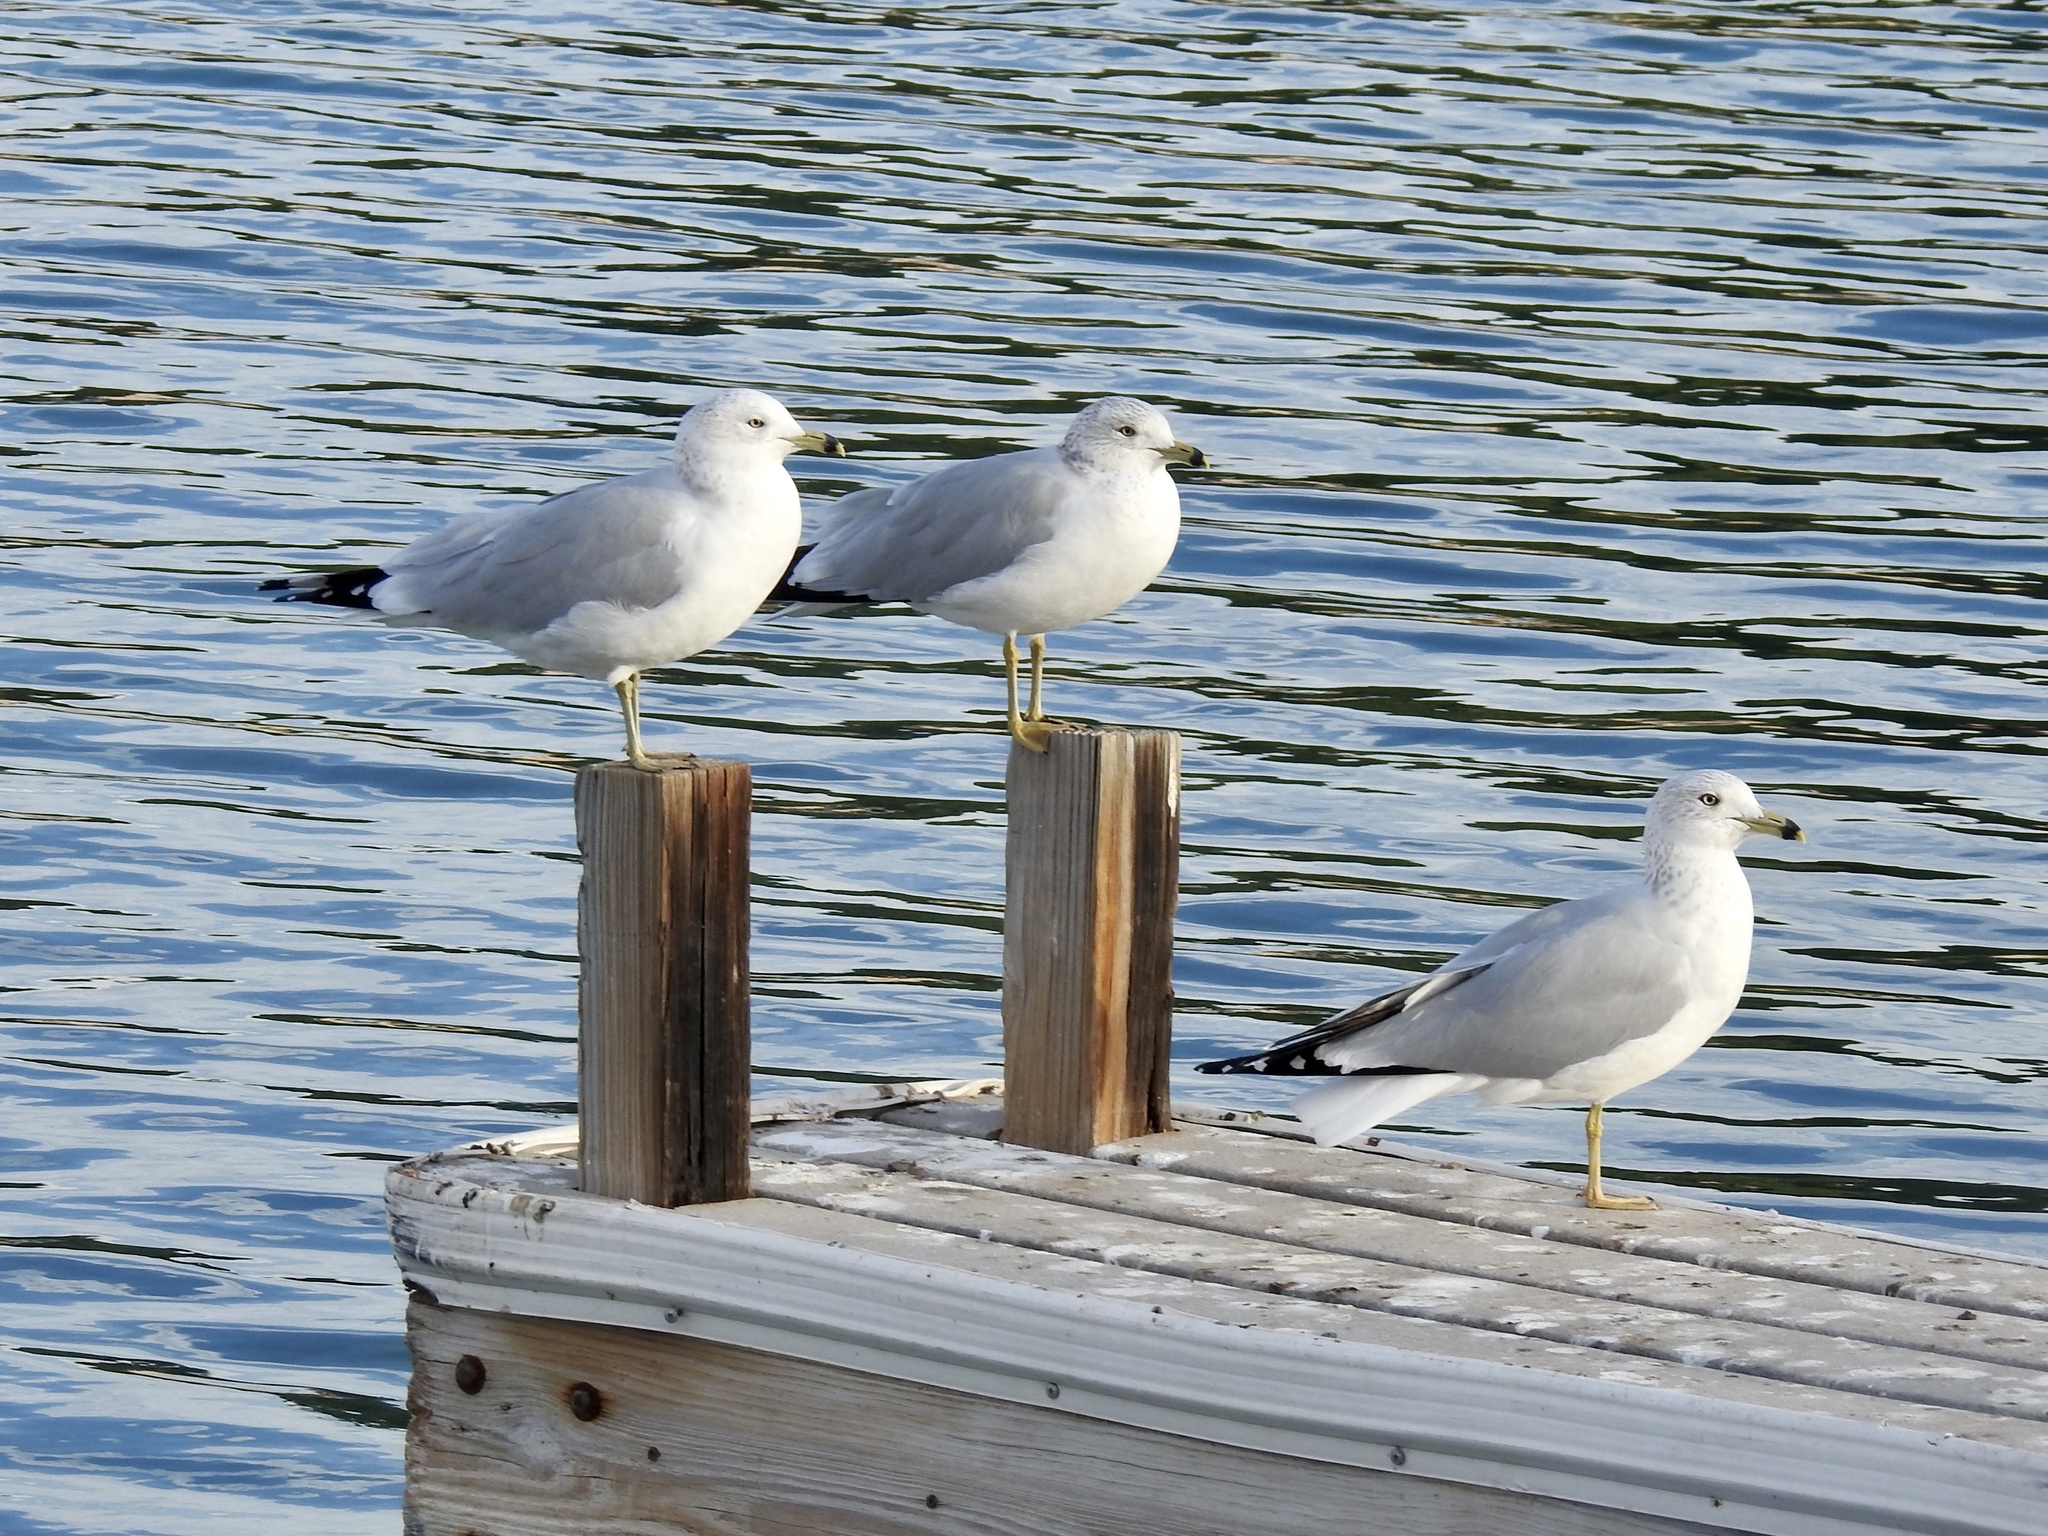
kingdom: Animalia
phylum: Chordata
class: Aves
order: Charadriiformes
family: Laridae
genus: Larus
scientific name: Larus delawarensis
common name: Ring-billed gull
